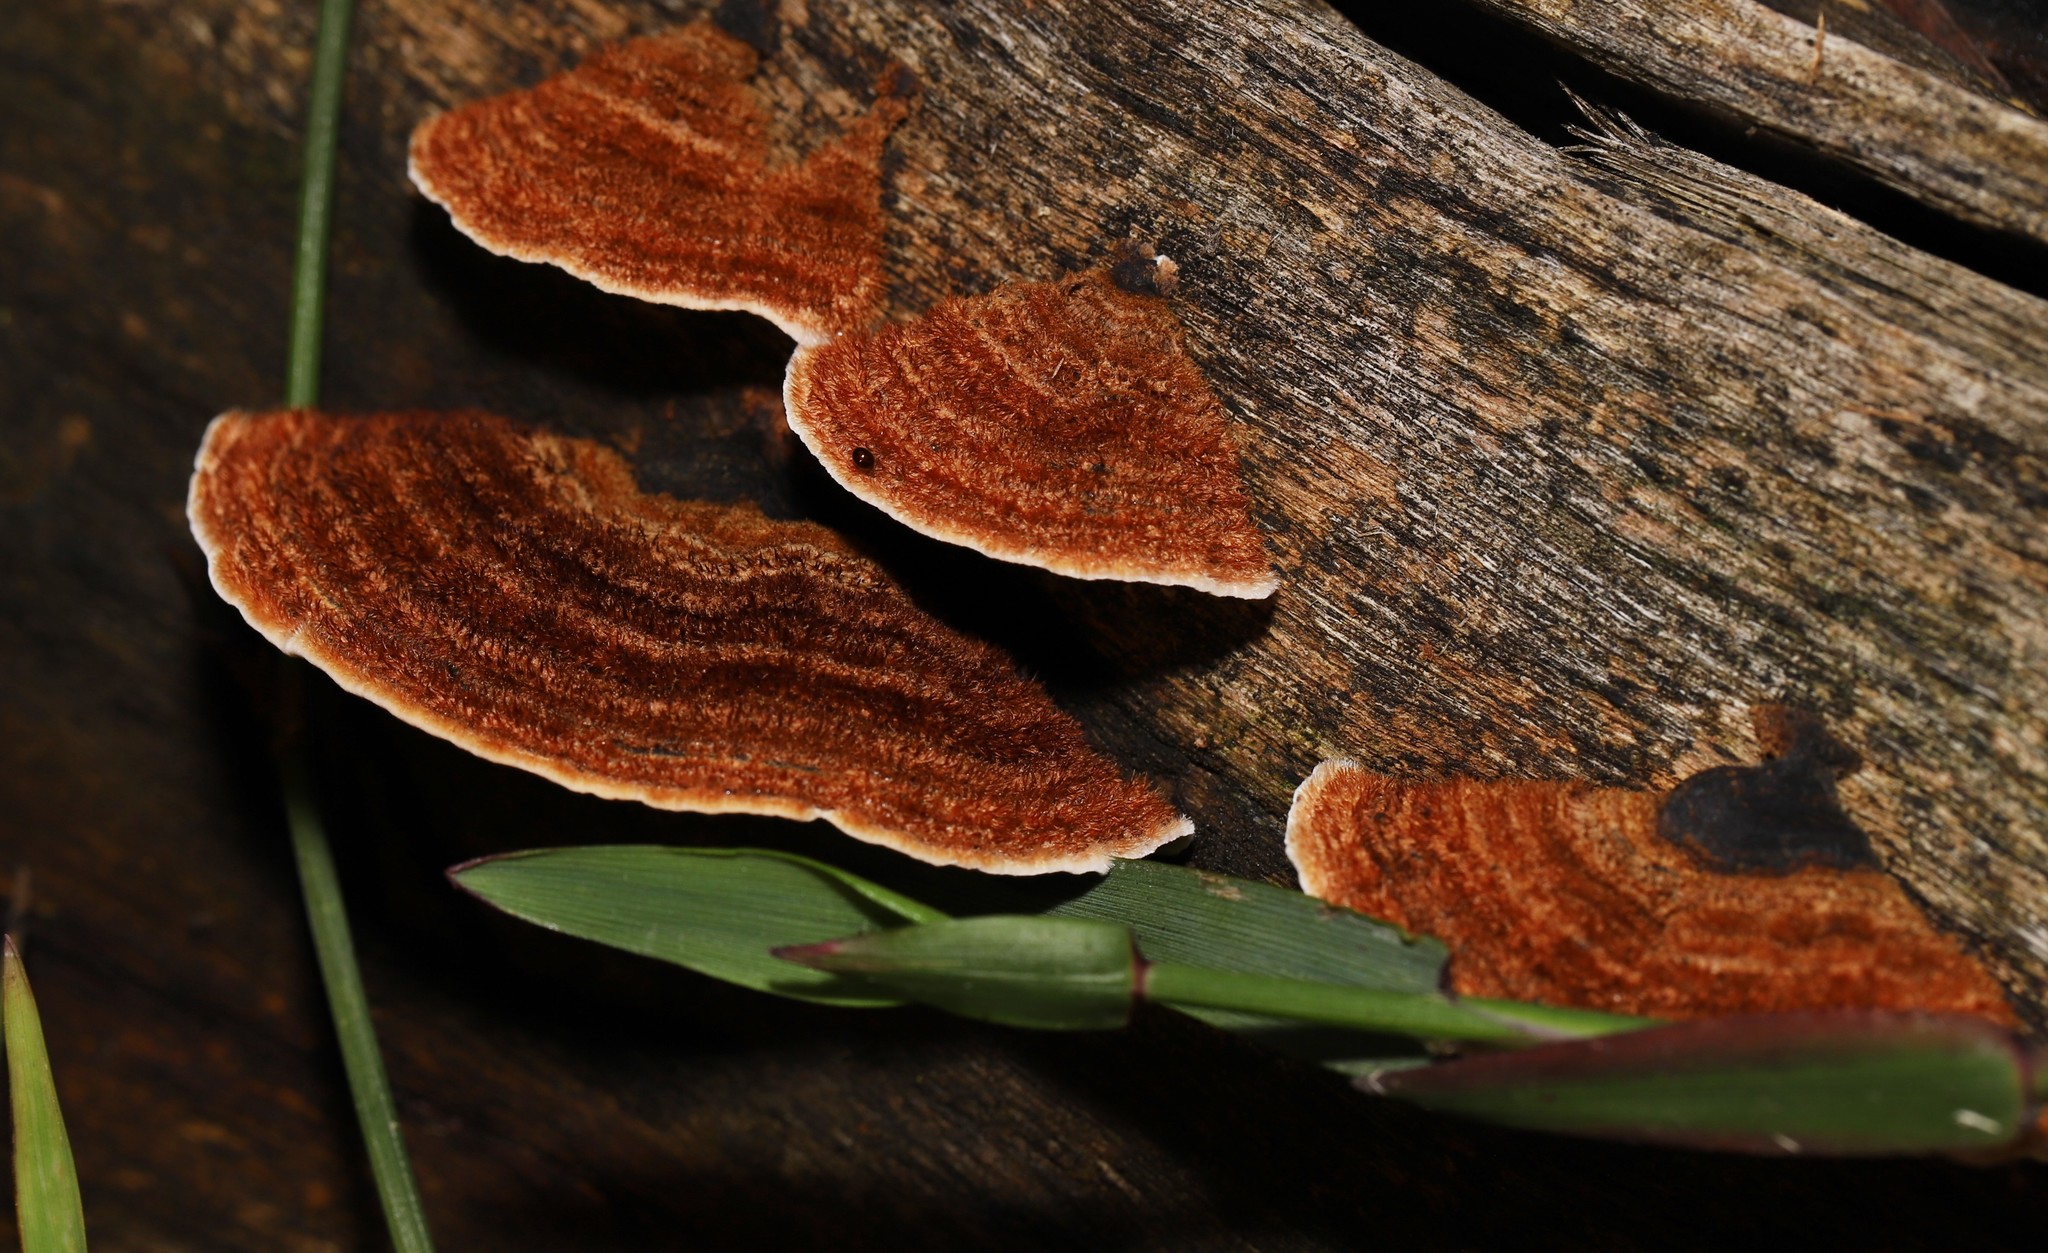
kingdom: Fungi
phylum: Basidiomycota
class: Agaricomycetes
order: Russulales
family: Stereaceae
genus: Xylobolus
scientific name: Xylobolus illudens
